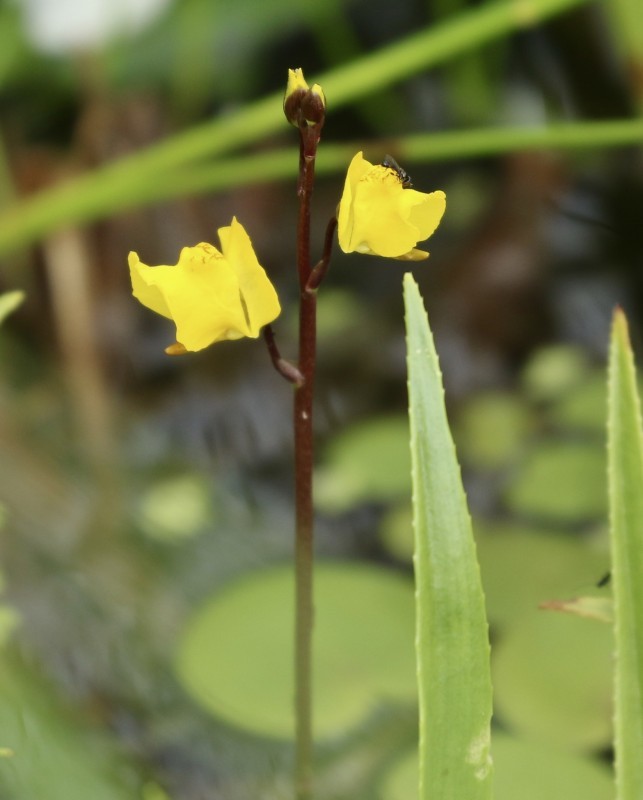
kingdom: Plantae
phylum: Tracheophyta
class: Magnoliopsida
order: Lamiales
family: Lentibulariaceae
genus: Utricularia
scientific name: Utricularia vulgaris
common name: Greater bladderwort
